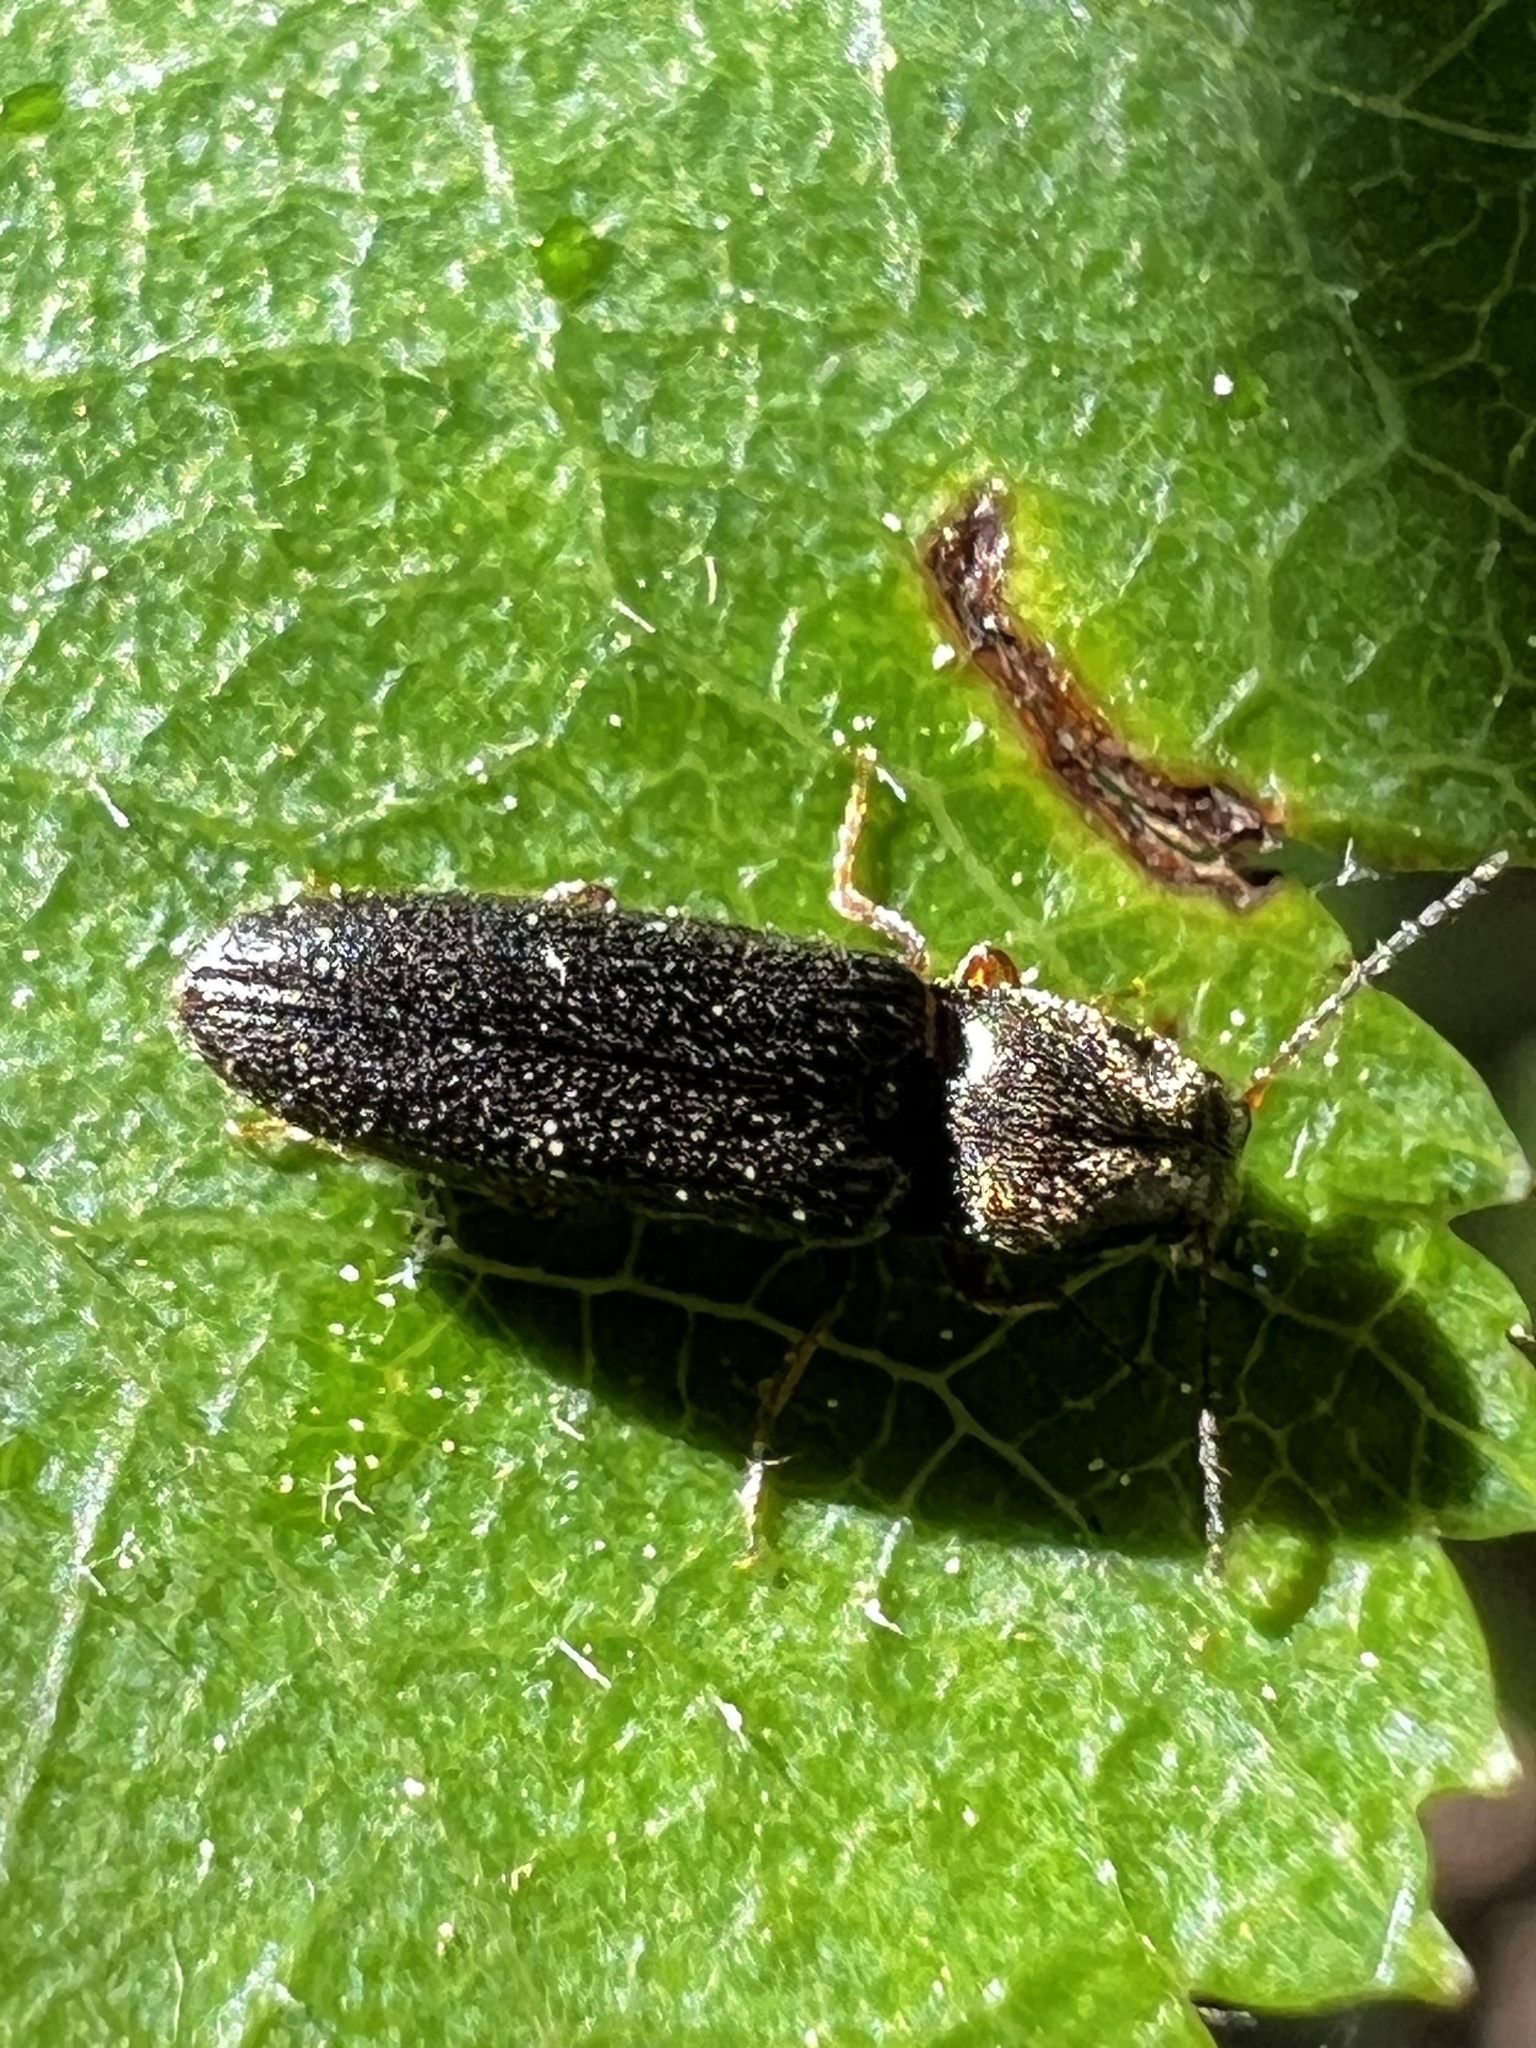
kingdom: Animalia
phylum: Arthropoda
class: Insecta
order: Coleoptera
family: Elateridae
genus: Limonius
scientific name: Limonius quercinus
